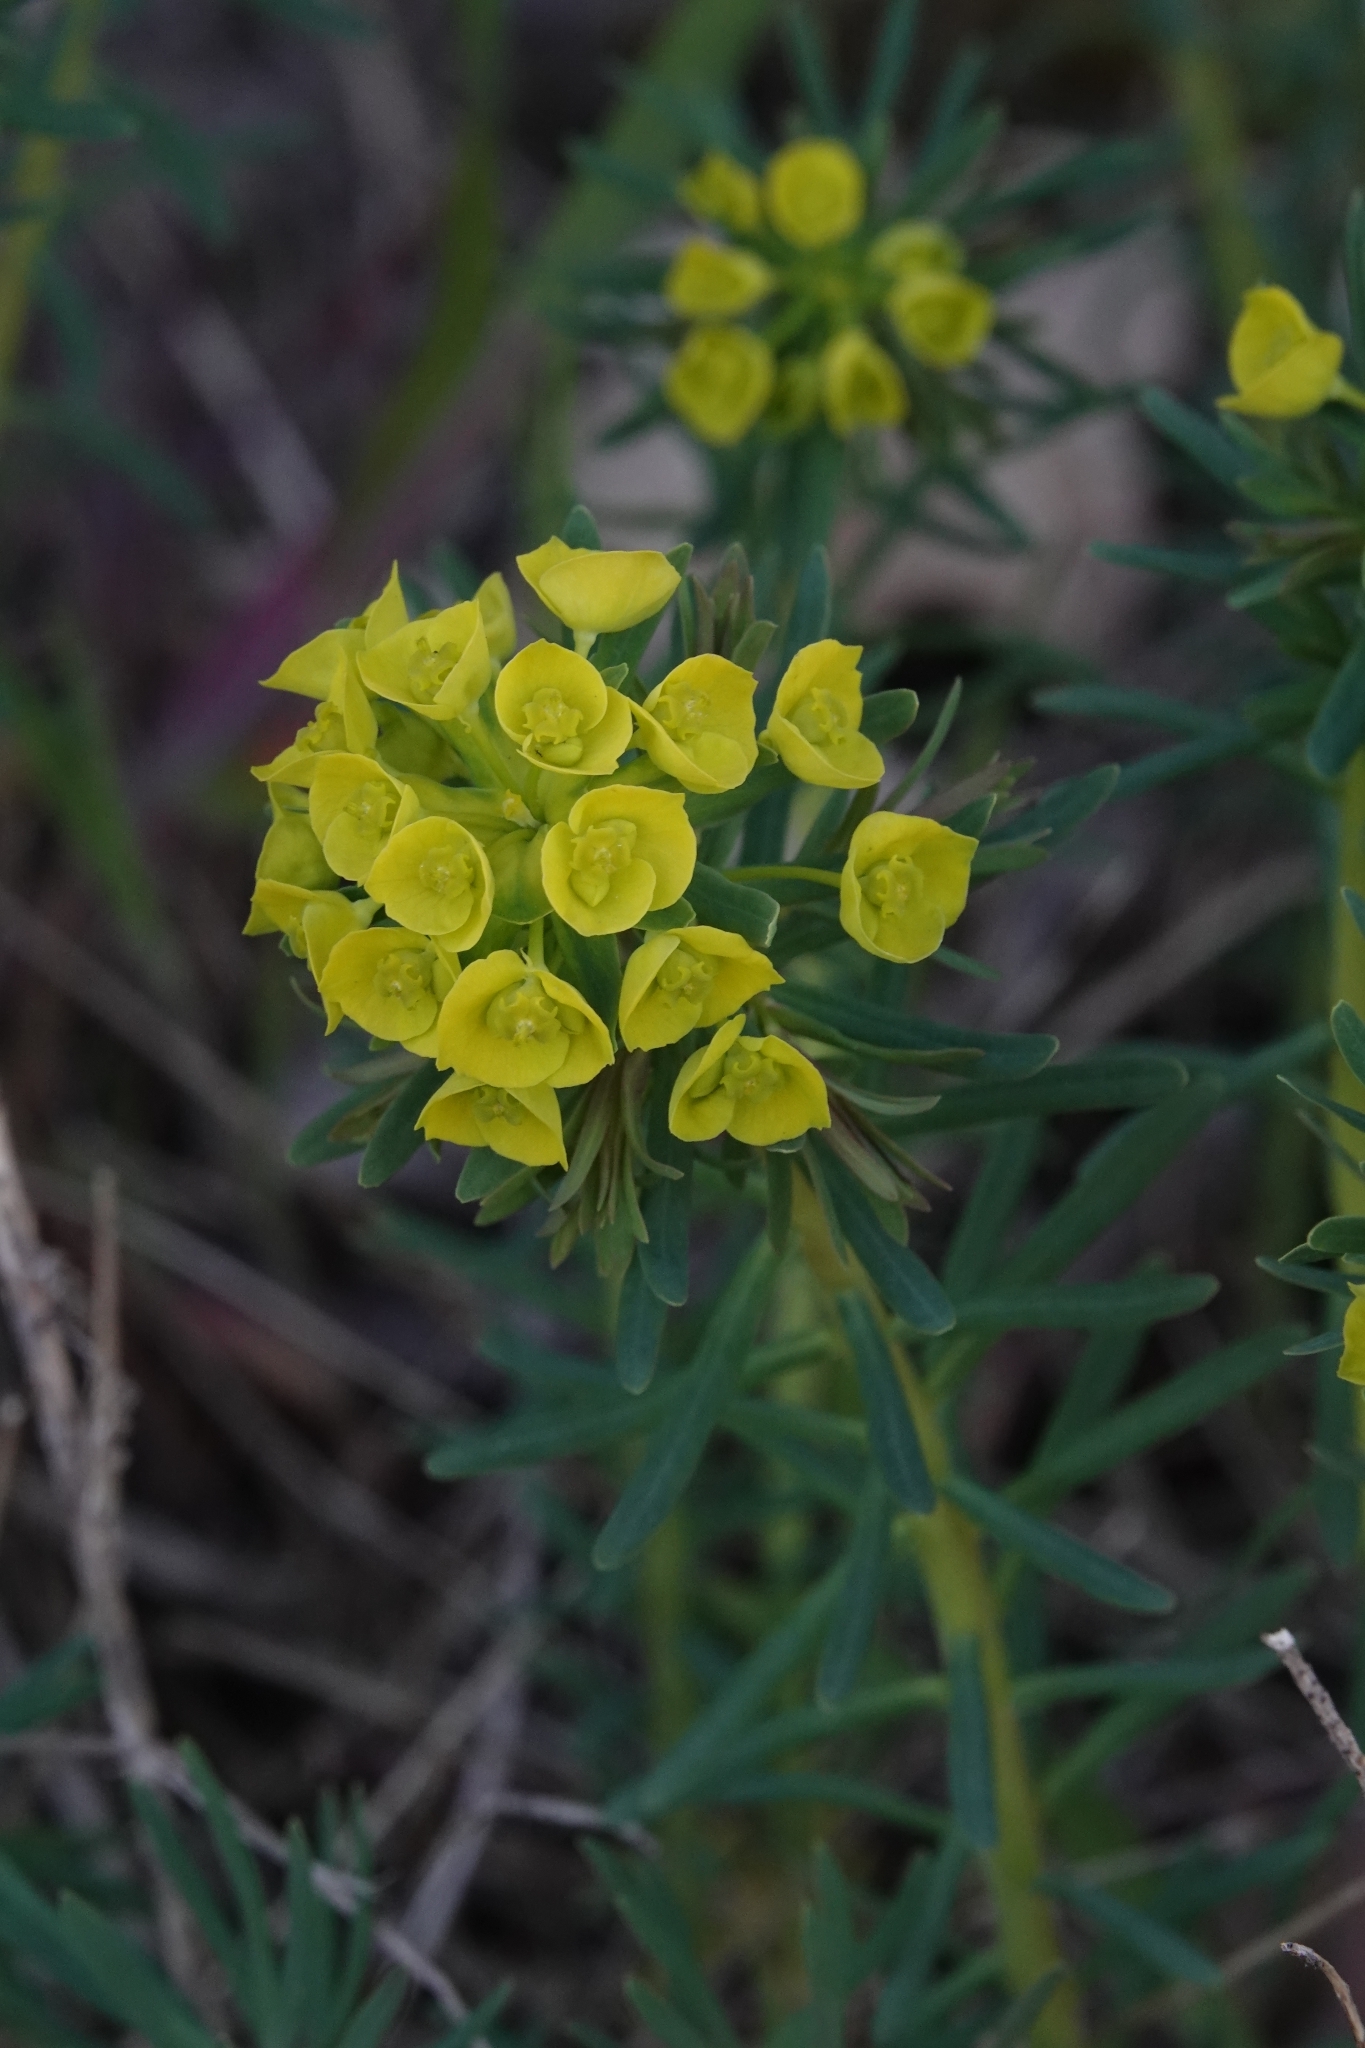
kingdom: Plantae
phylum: Tracheophyta
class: Magnoliopsida
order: Malpighiales
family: Euphorbiaceae
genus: Euphorbia
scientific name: Euphorbia cyparissias
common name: Cypress spurge
